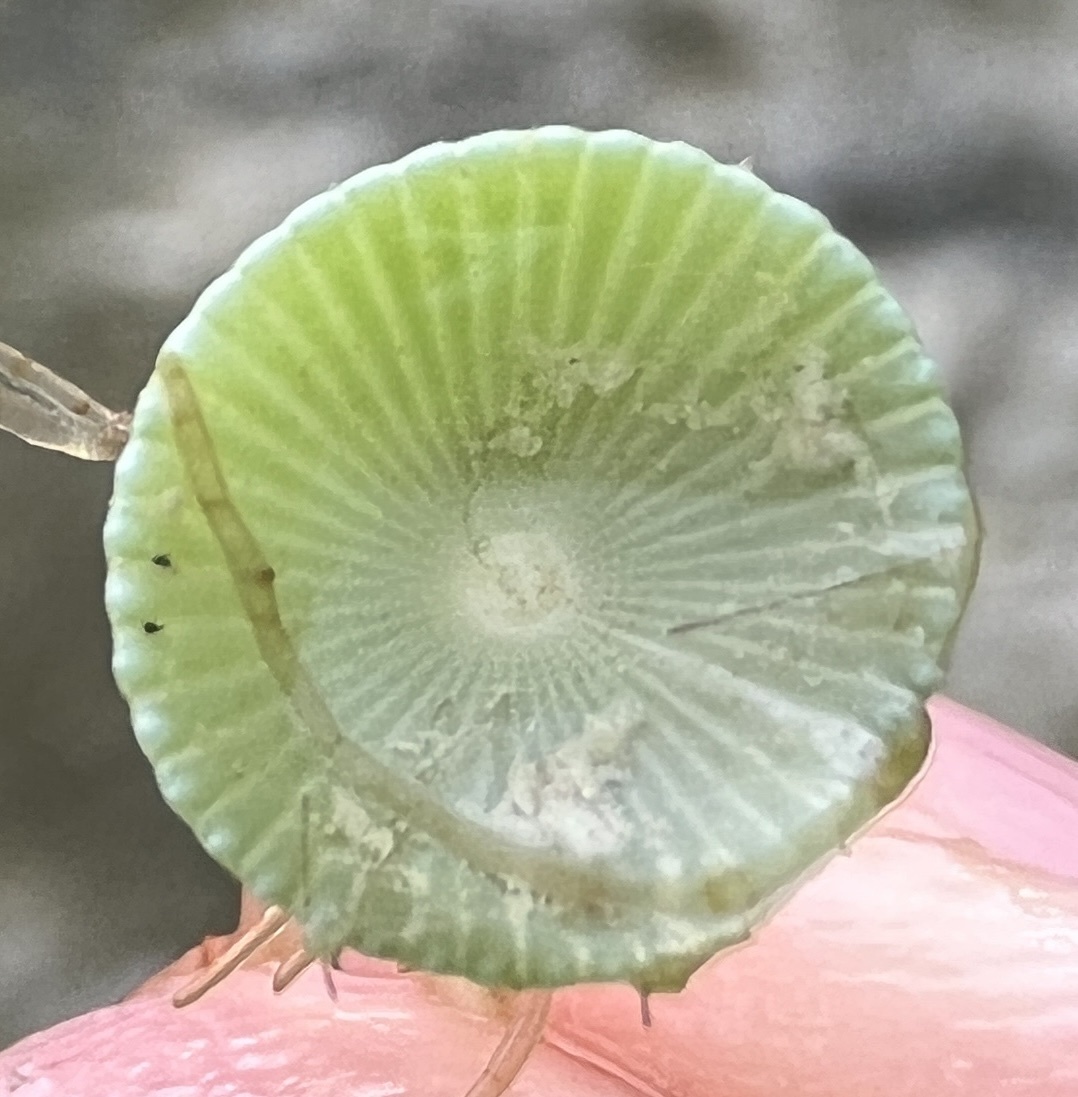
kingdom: Plantae
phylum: Chlorophyta
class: Ulvophyceae
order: Dasycladales
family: Polyphysaceae
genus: Acetabularia
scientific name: Acetabularia crenulata
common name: White mermaid's wine glass
